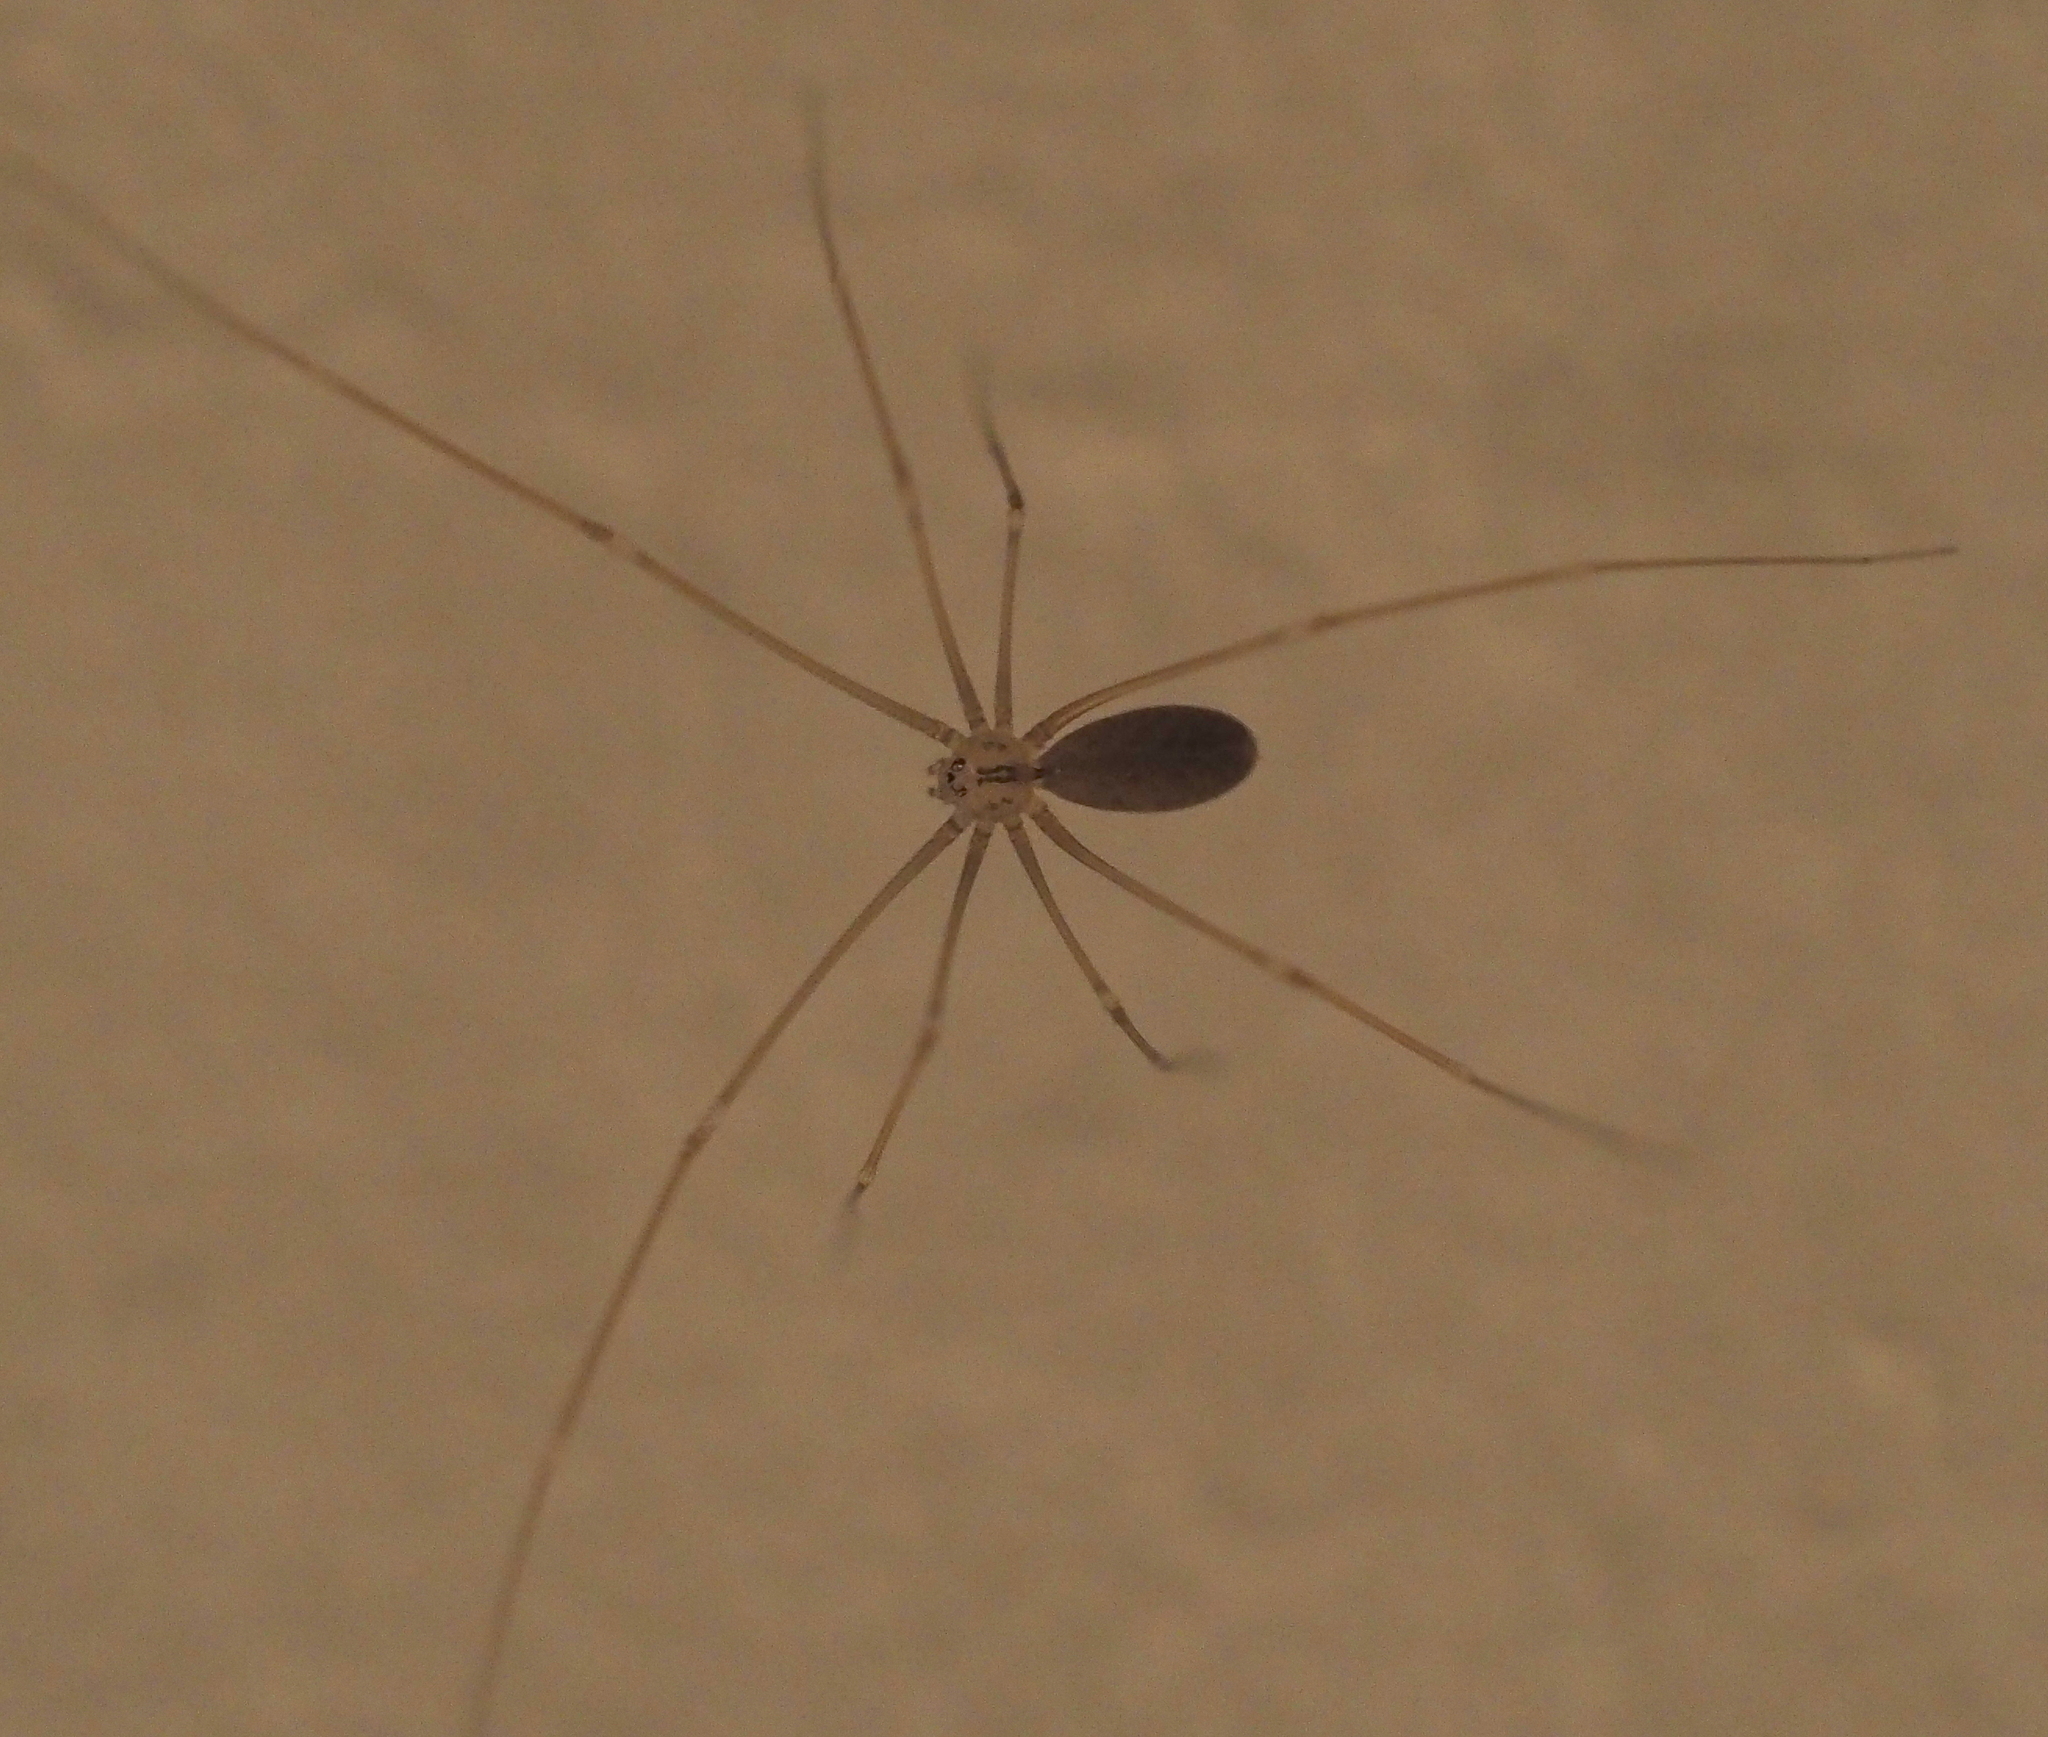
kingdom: Animalia
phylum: Arthropoda
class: Arachnida
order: Araneae
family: Pholcidae
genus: Pholcus
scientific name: Pholcus opilionoides
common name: Daddylongleg spider
